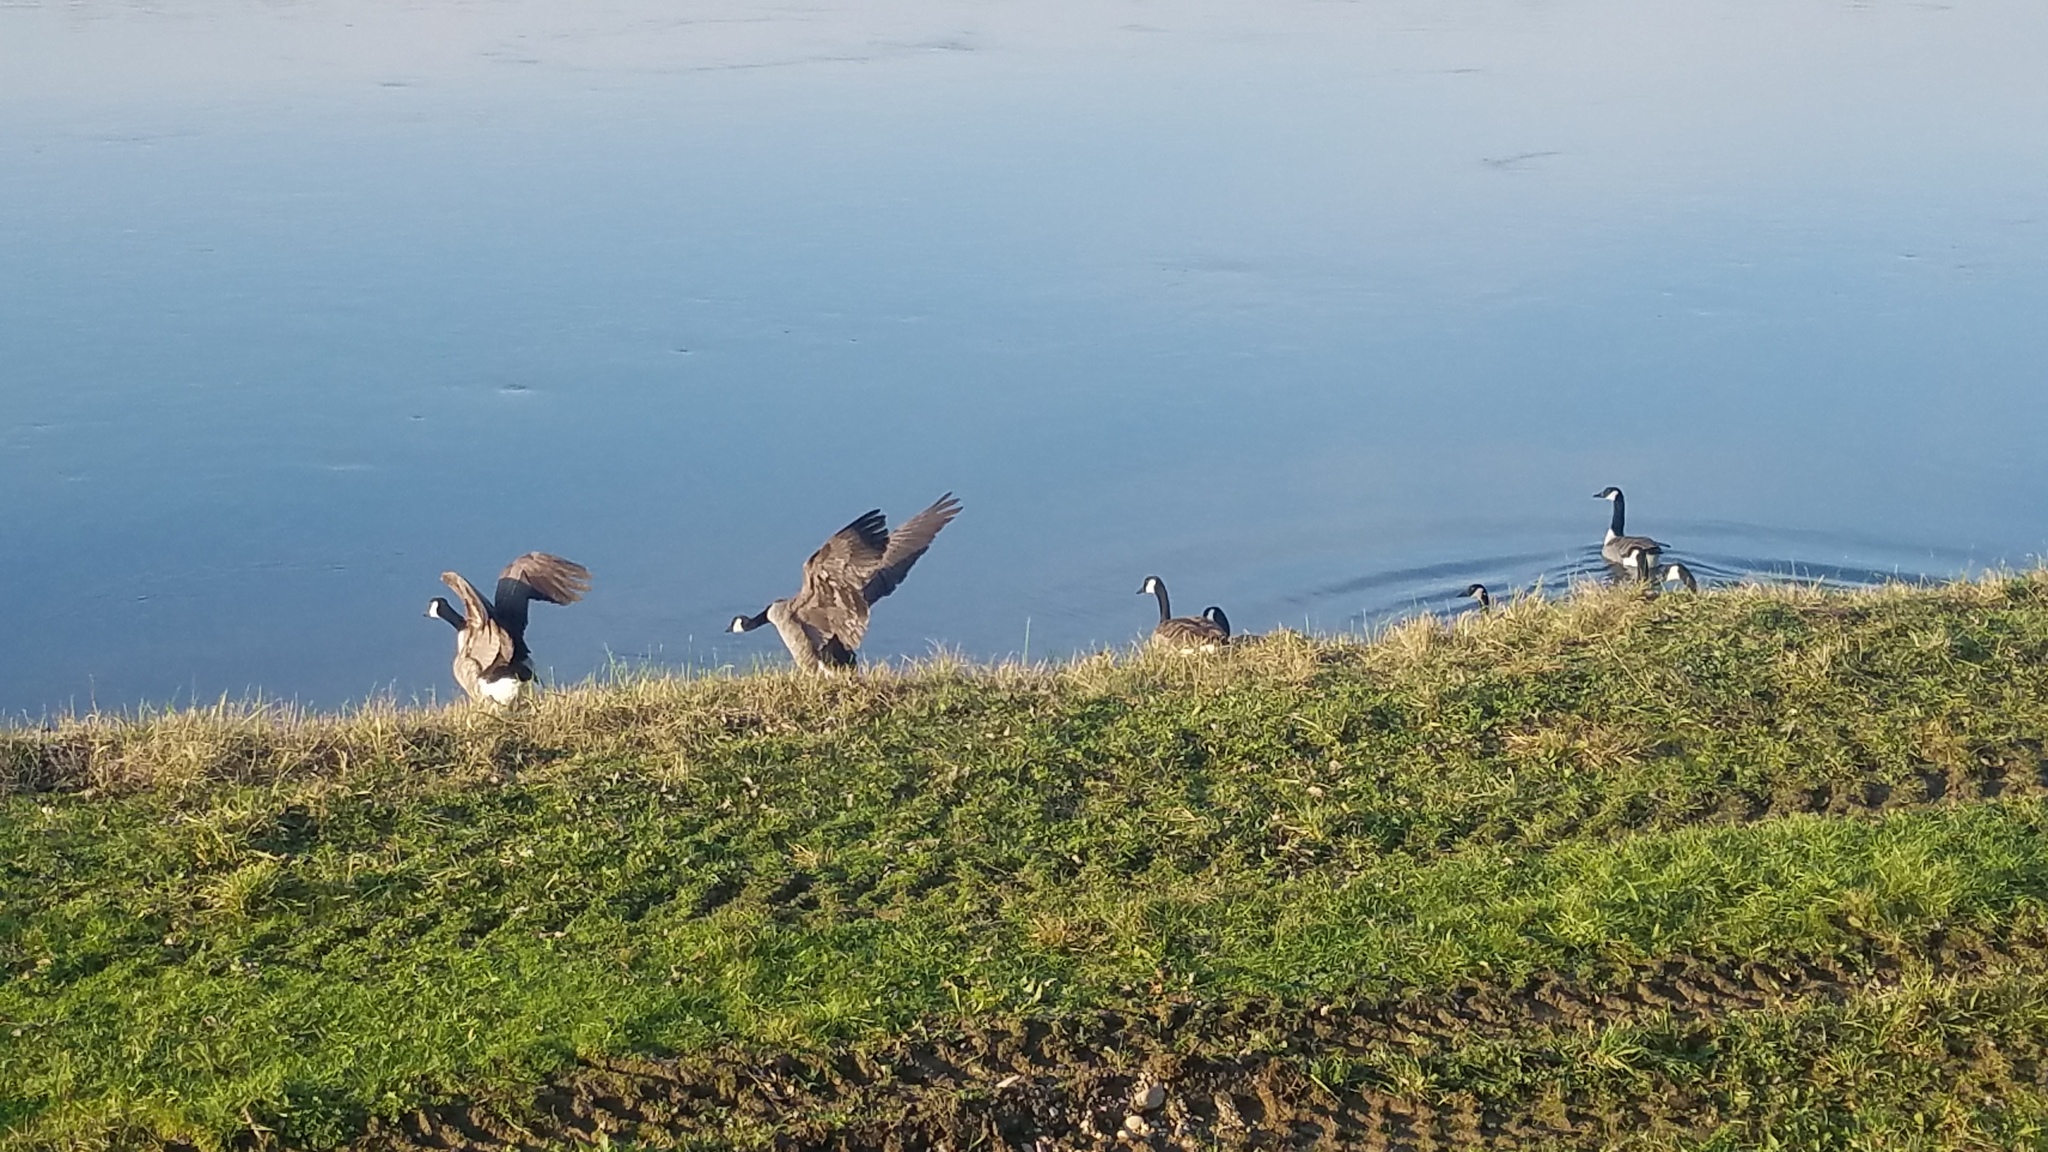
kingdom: Animalia
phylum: Chordata
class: Aves
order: Anseriformes
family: Anatidae
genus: Branta
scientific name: Branta canadensis
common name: Canada goose
